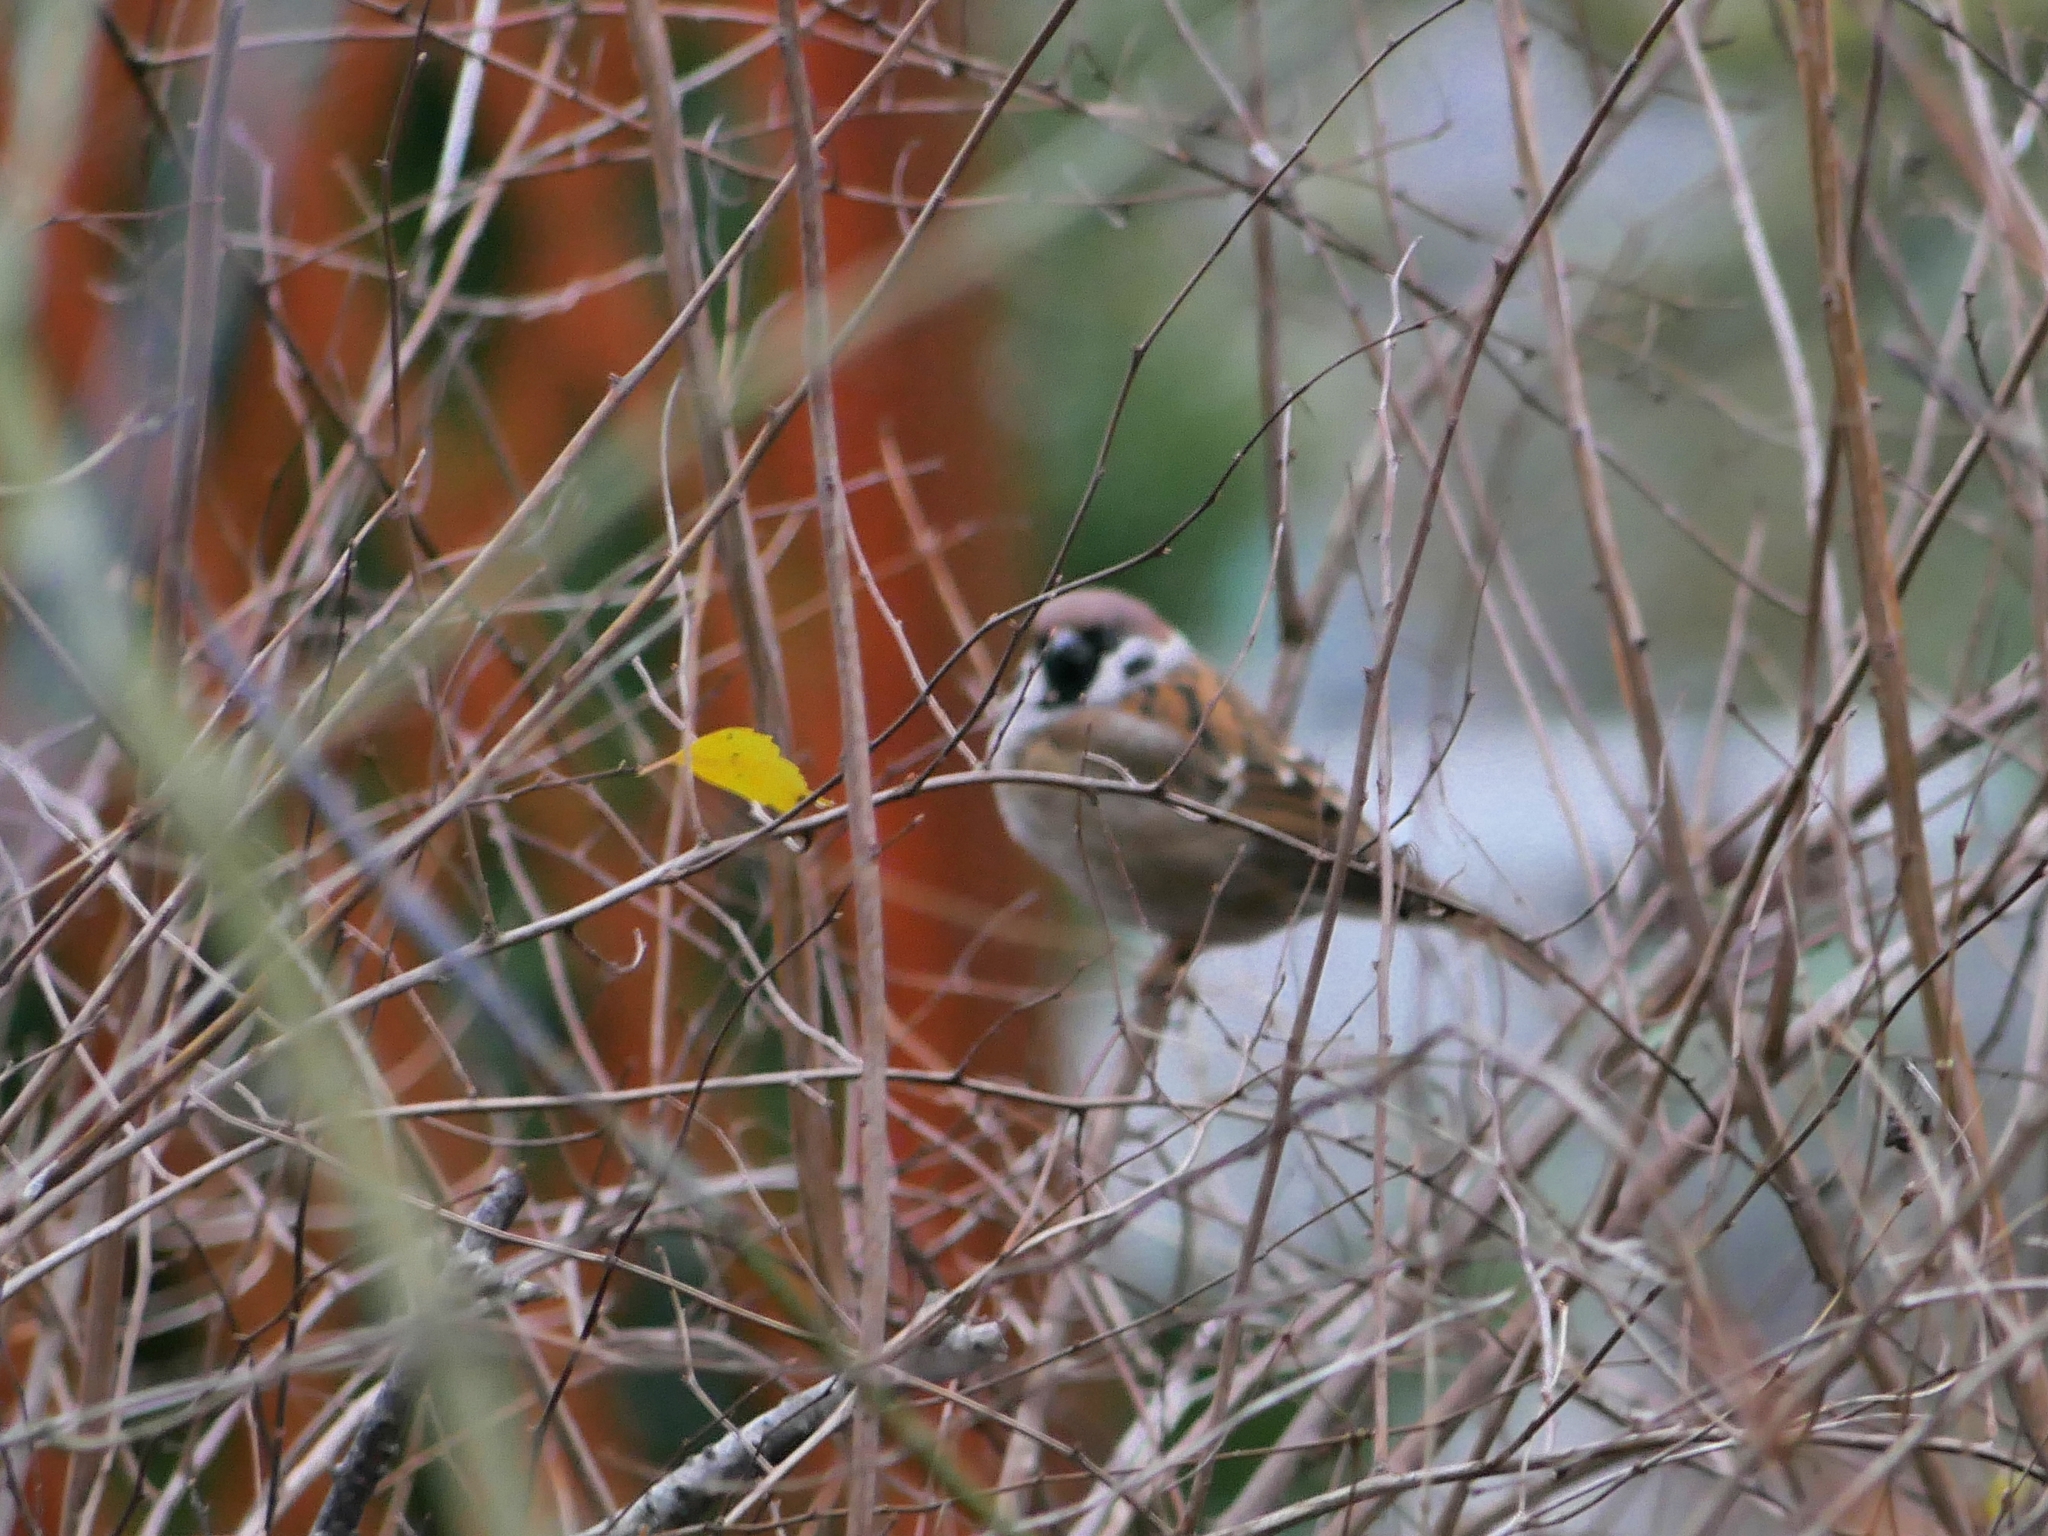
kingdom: Animalia
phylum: Chordata
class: Aves
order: Passeriformes
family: Passeridae
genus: Passer
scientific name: Passer montanus
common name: Eurasian tree sparrow
